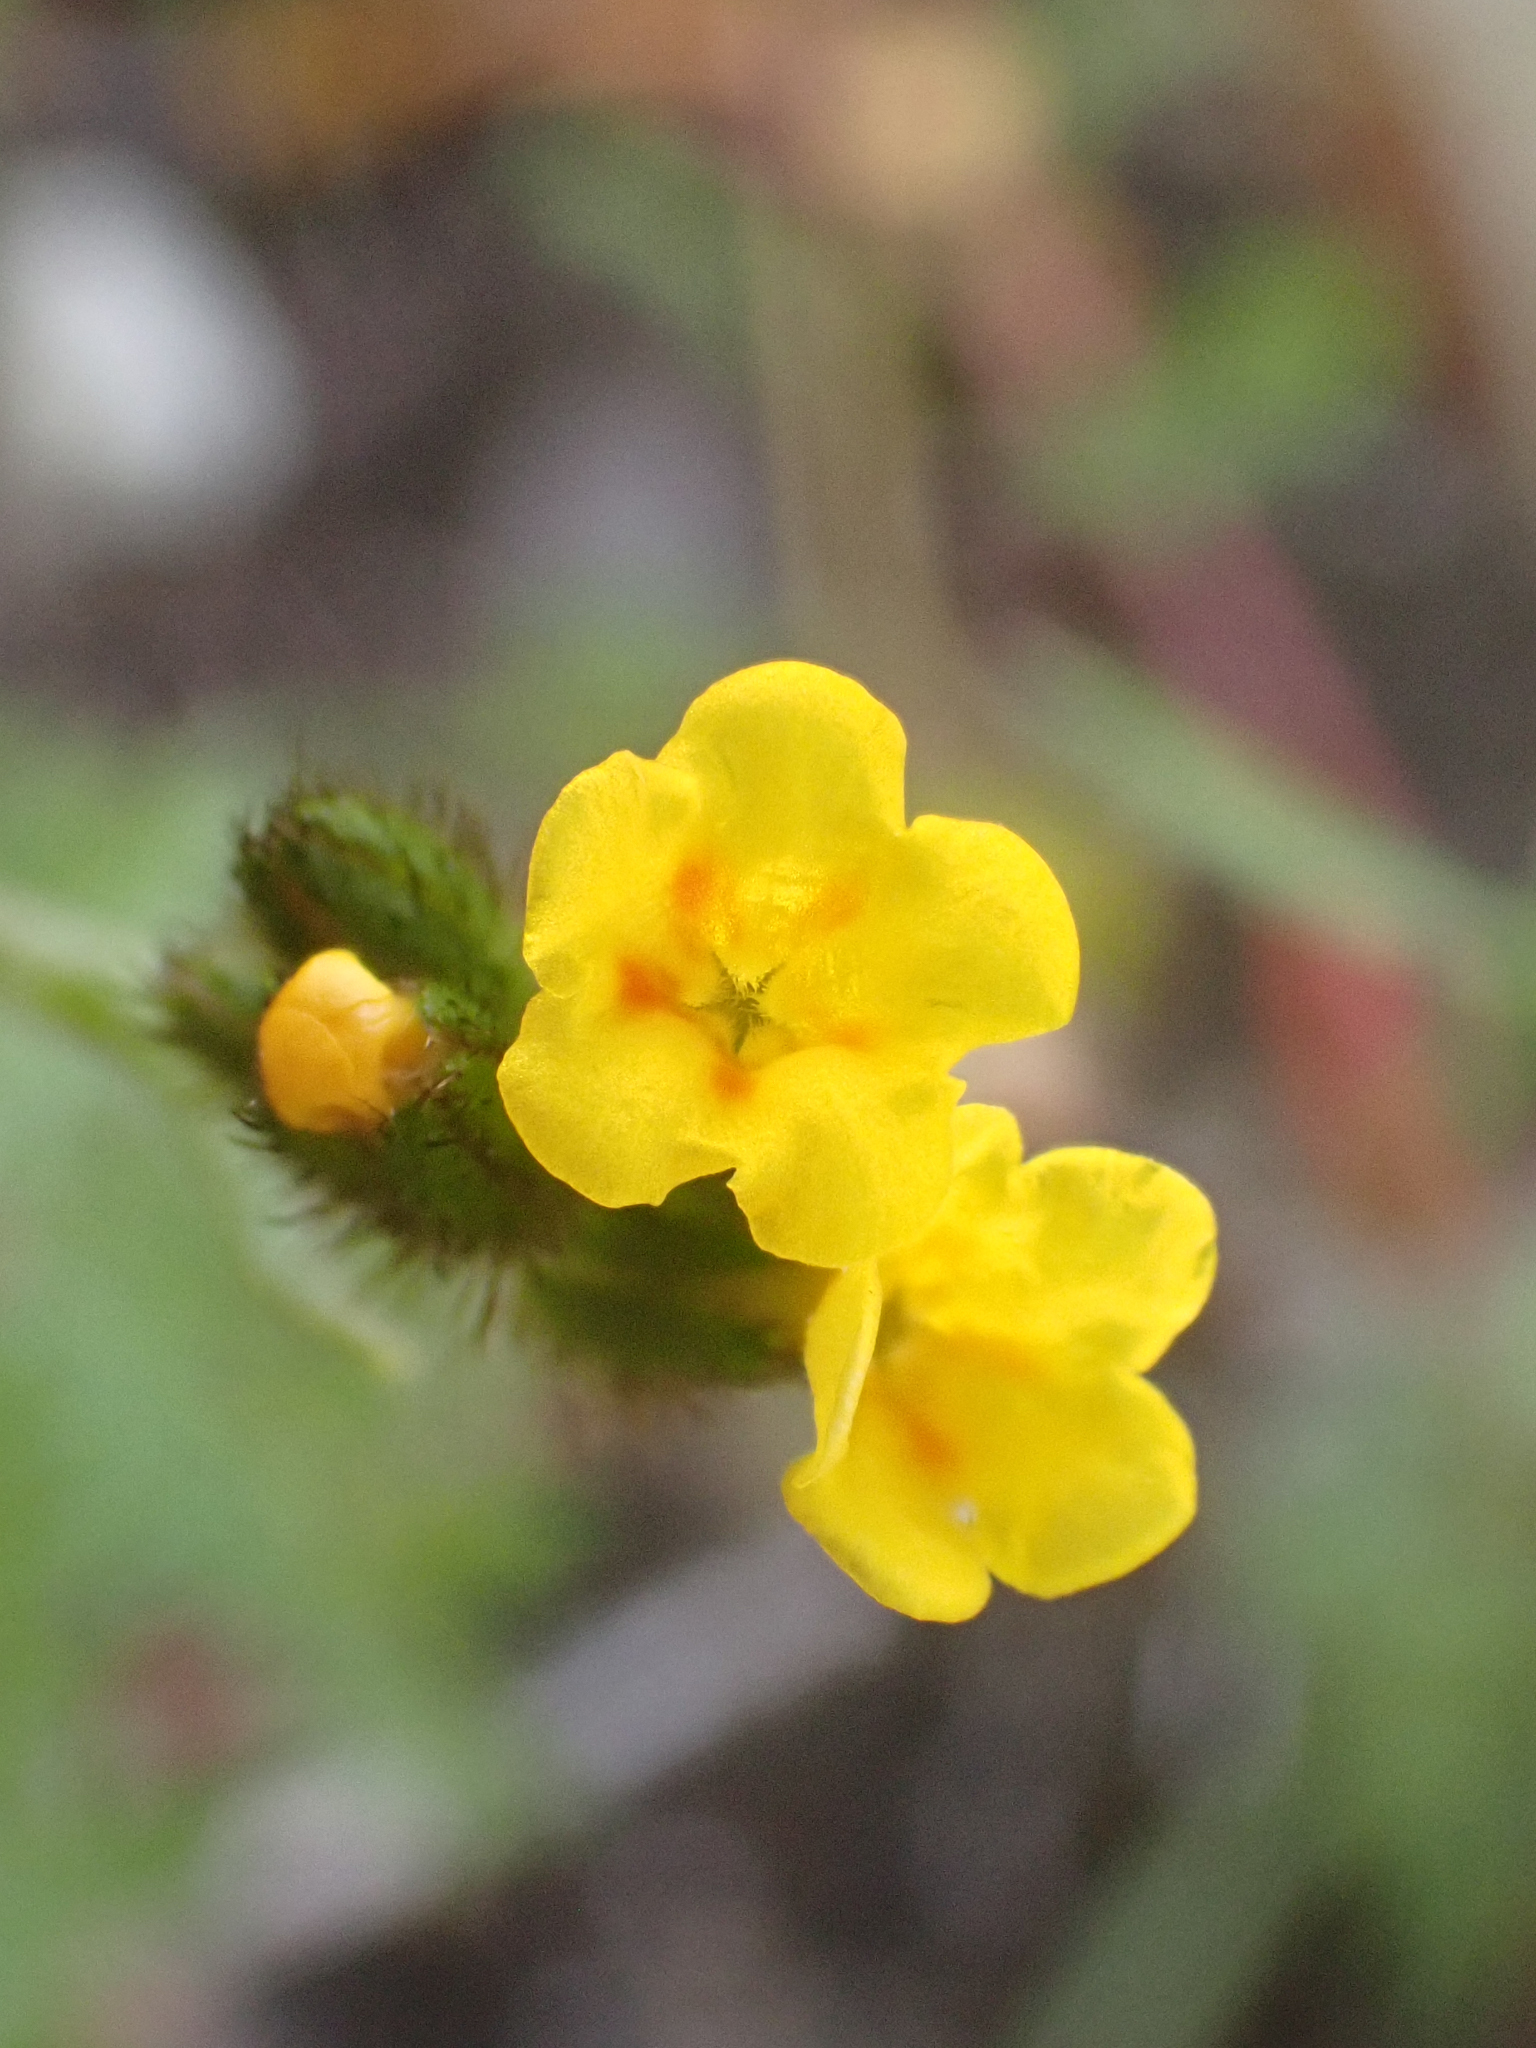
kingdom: Plantae
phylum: Tracheophyta
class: Magnoliopsida
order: Boraginales
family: Boraginaceae
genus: Amsinckia
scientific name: Amsinckia lycopsoides
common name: Tarweed fiddleneck
